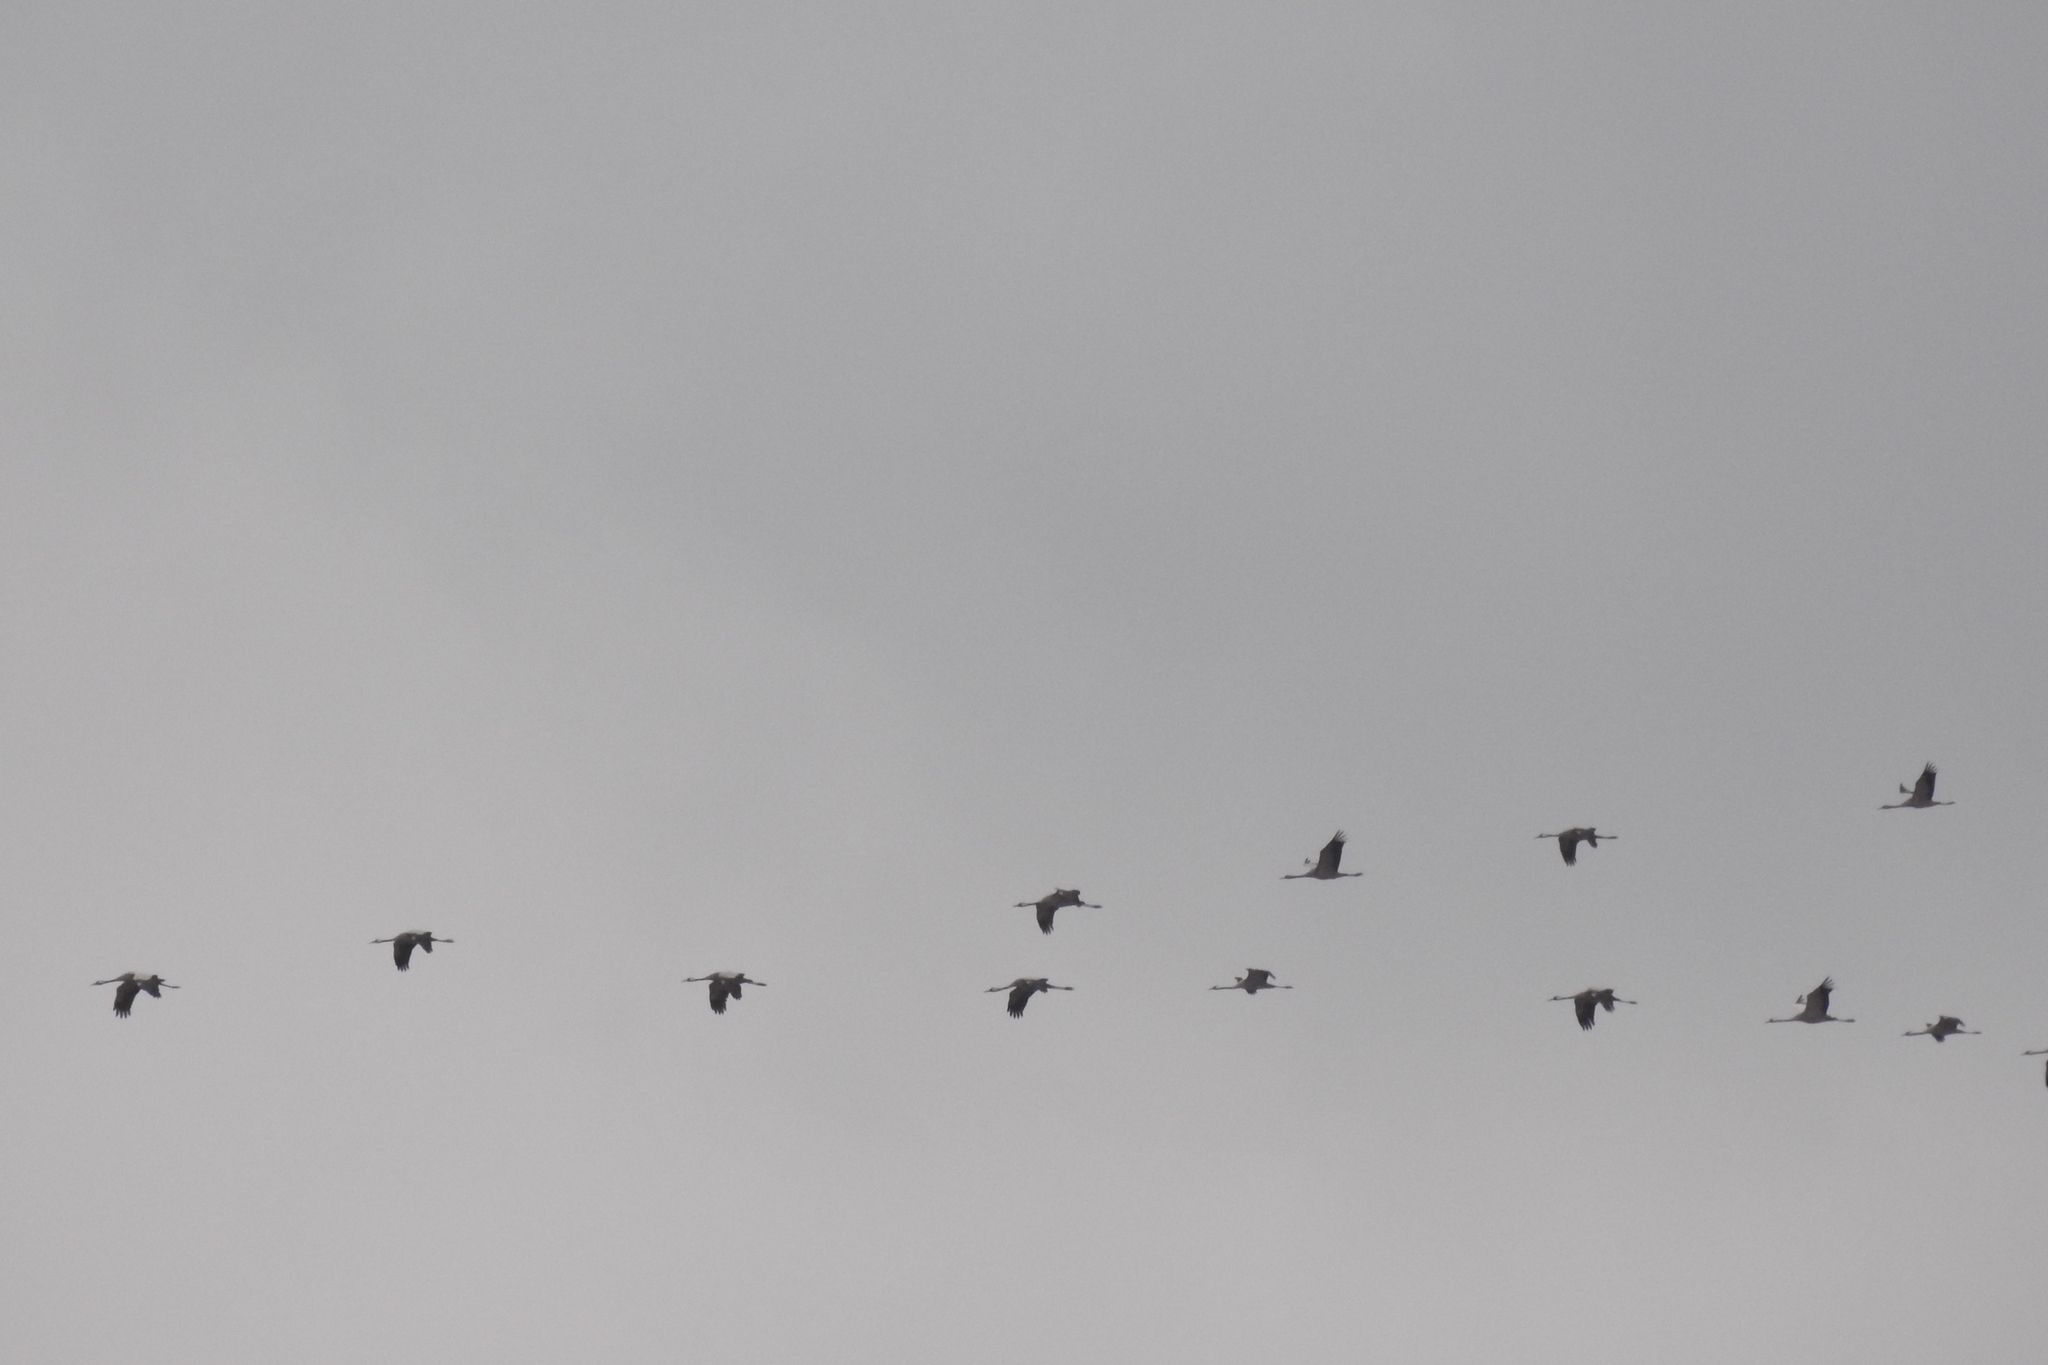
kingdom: Animalia
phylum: Chordata
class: Aves
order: Gruiformes
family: Gruidae
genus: Grus
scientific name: Grus grus
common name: Common crane
